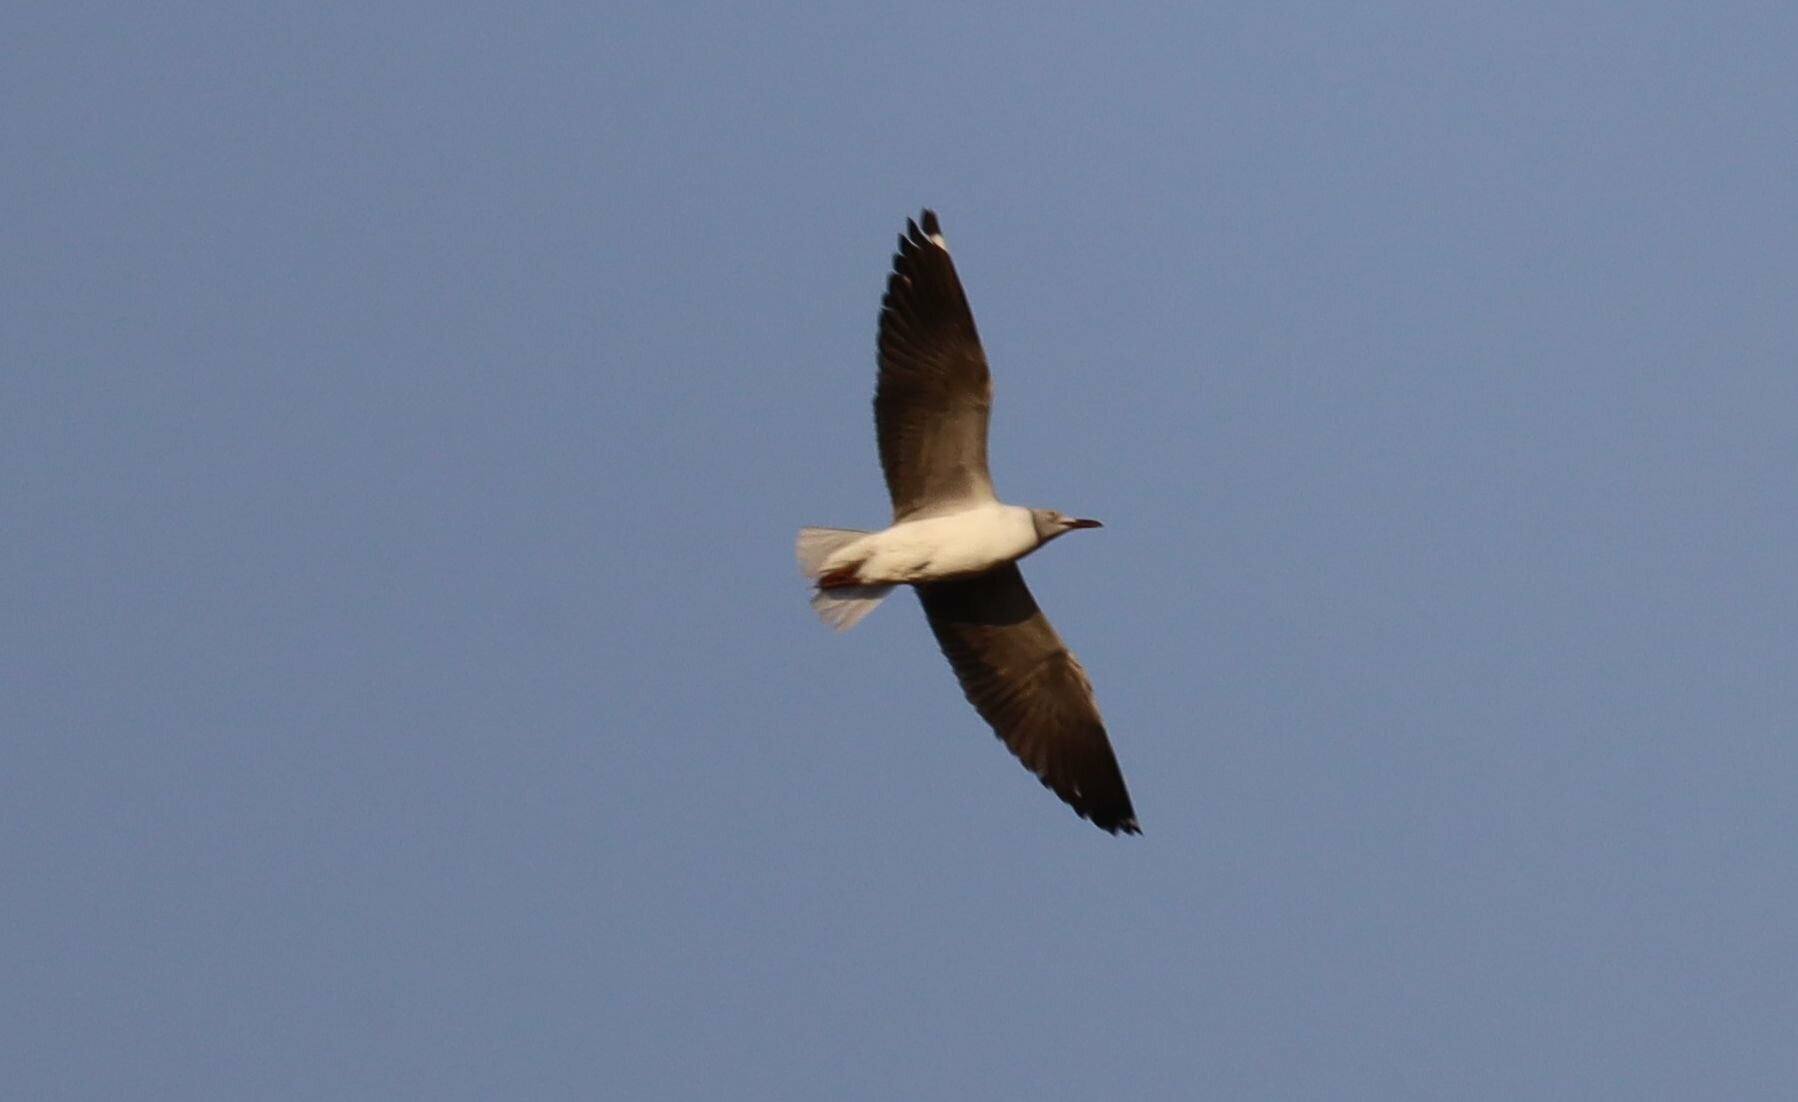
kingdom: Animalia
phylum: Chordata
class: Aves
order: Charadriiformes
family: Laridae
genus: Chroicocephalus
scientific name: Chroicocephalus cirrocephalus
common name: Grey-headed gull
